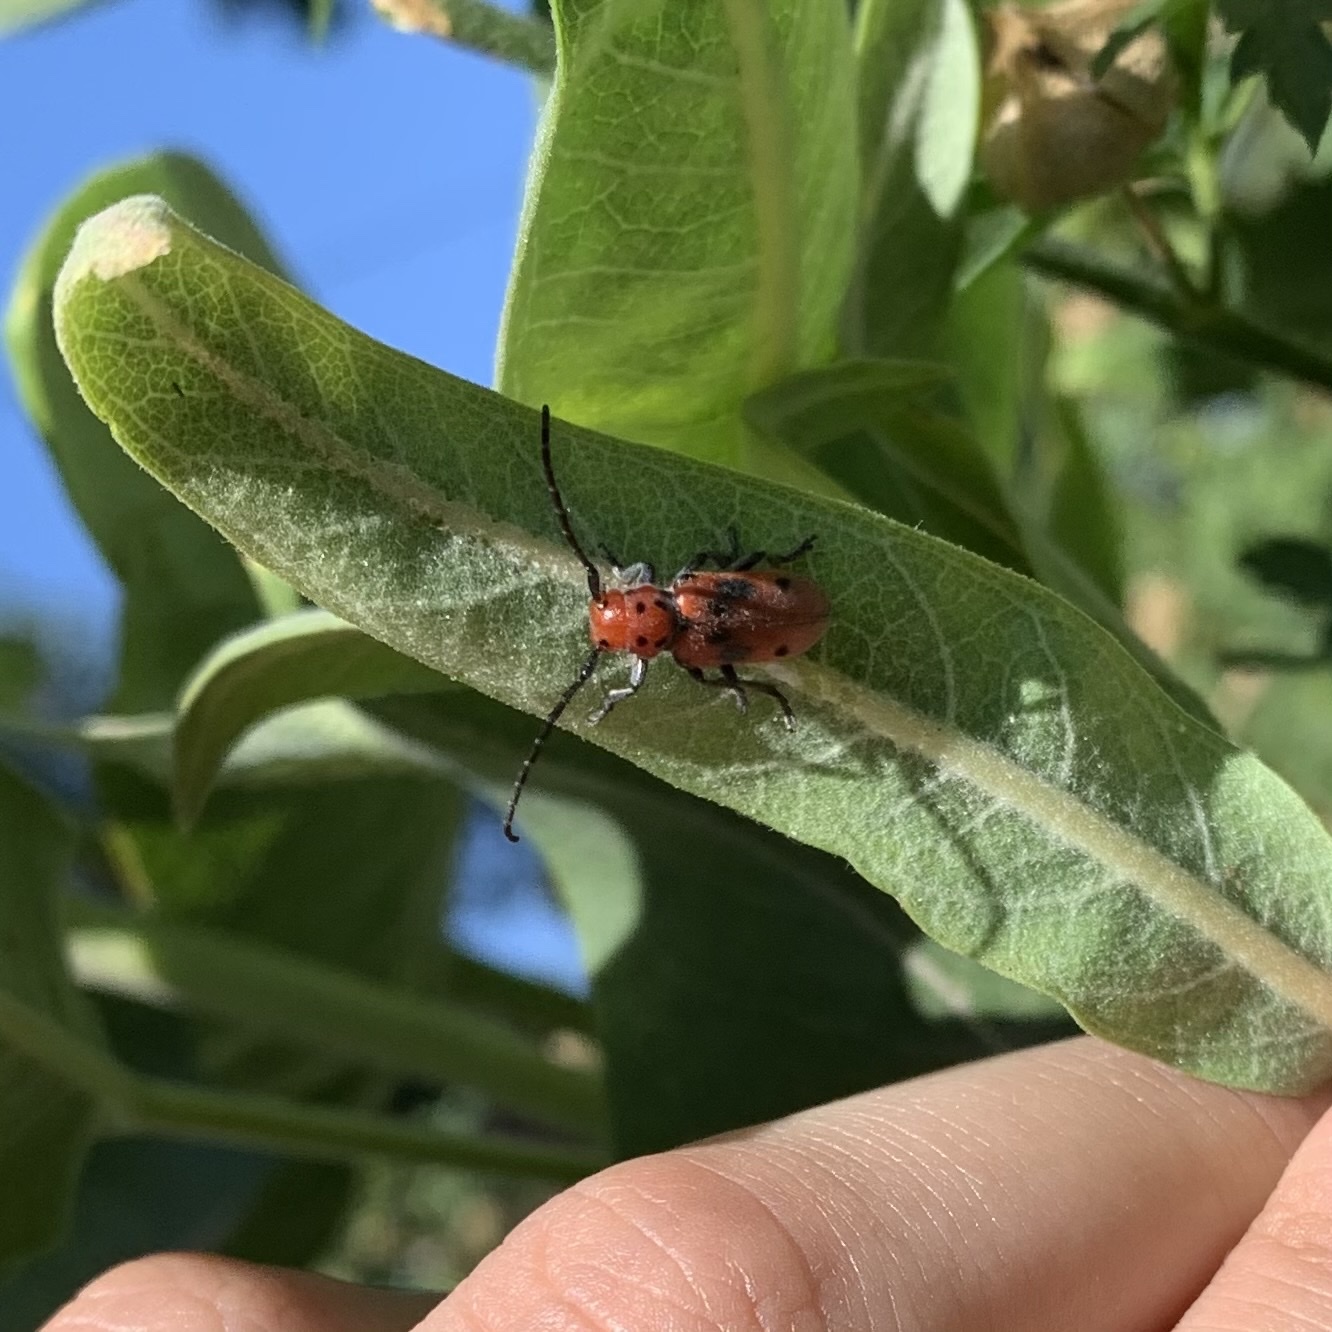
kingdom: Animalia
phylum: Arthropoda
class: Insecta
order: Coleoptera
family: Cerambycidae
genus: Tetraopes
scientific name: Tetraopes tetrophthalmus
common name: Red milkweed beetle
